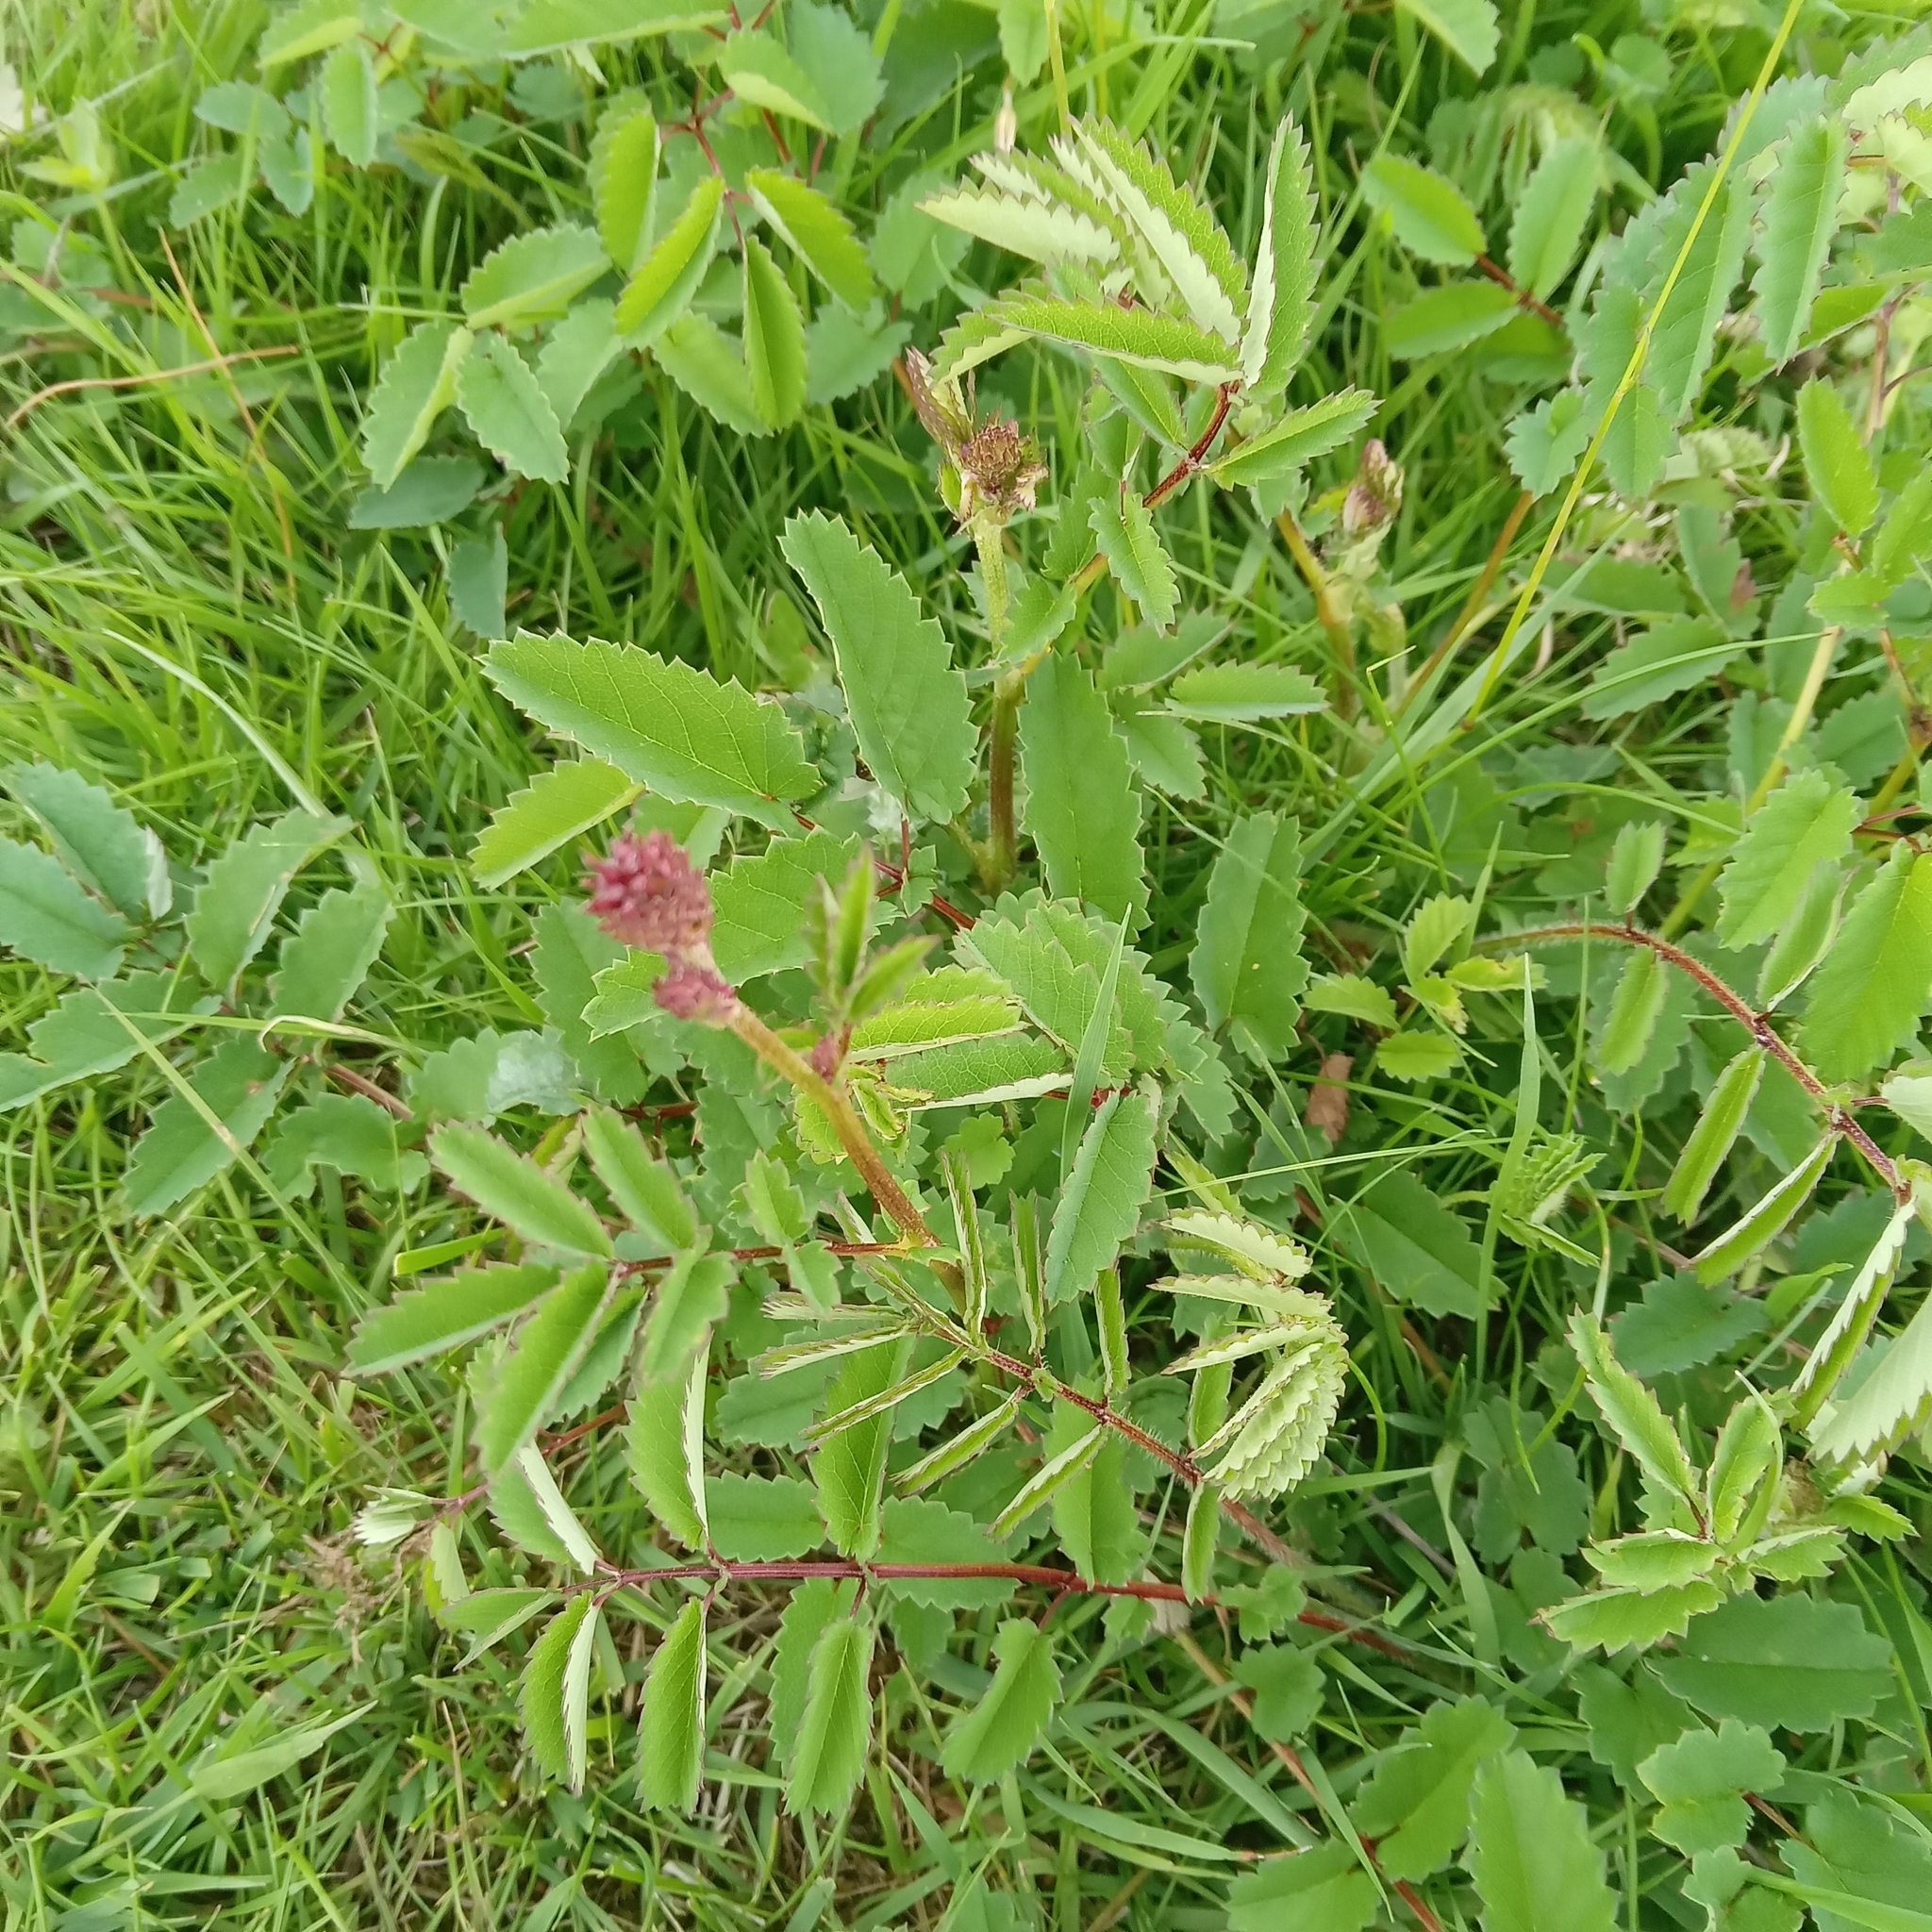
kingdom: Plantae
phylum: Tracheophyta
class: Magnoliopsida
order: Rosales
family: Rosaceae
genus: Sanguisorba
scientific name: Sanguisorba officinalis
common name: Great burnet
